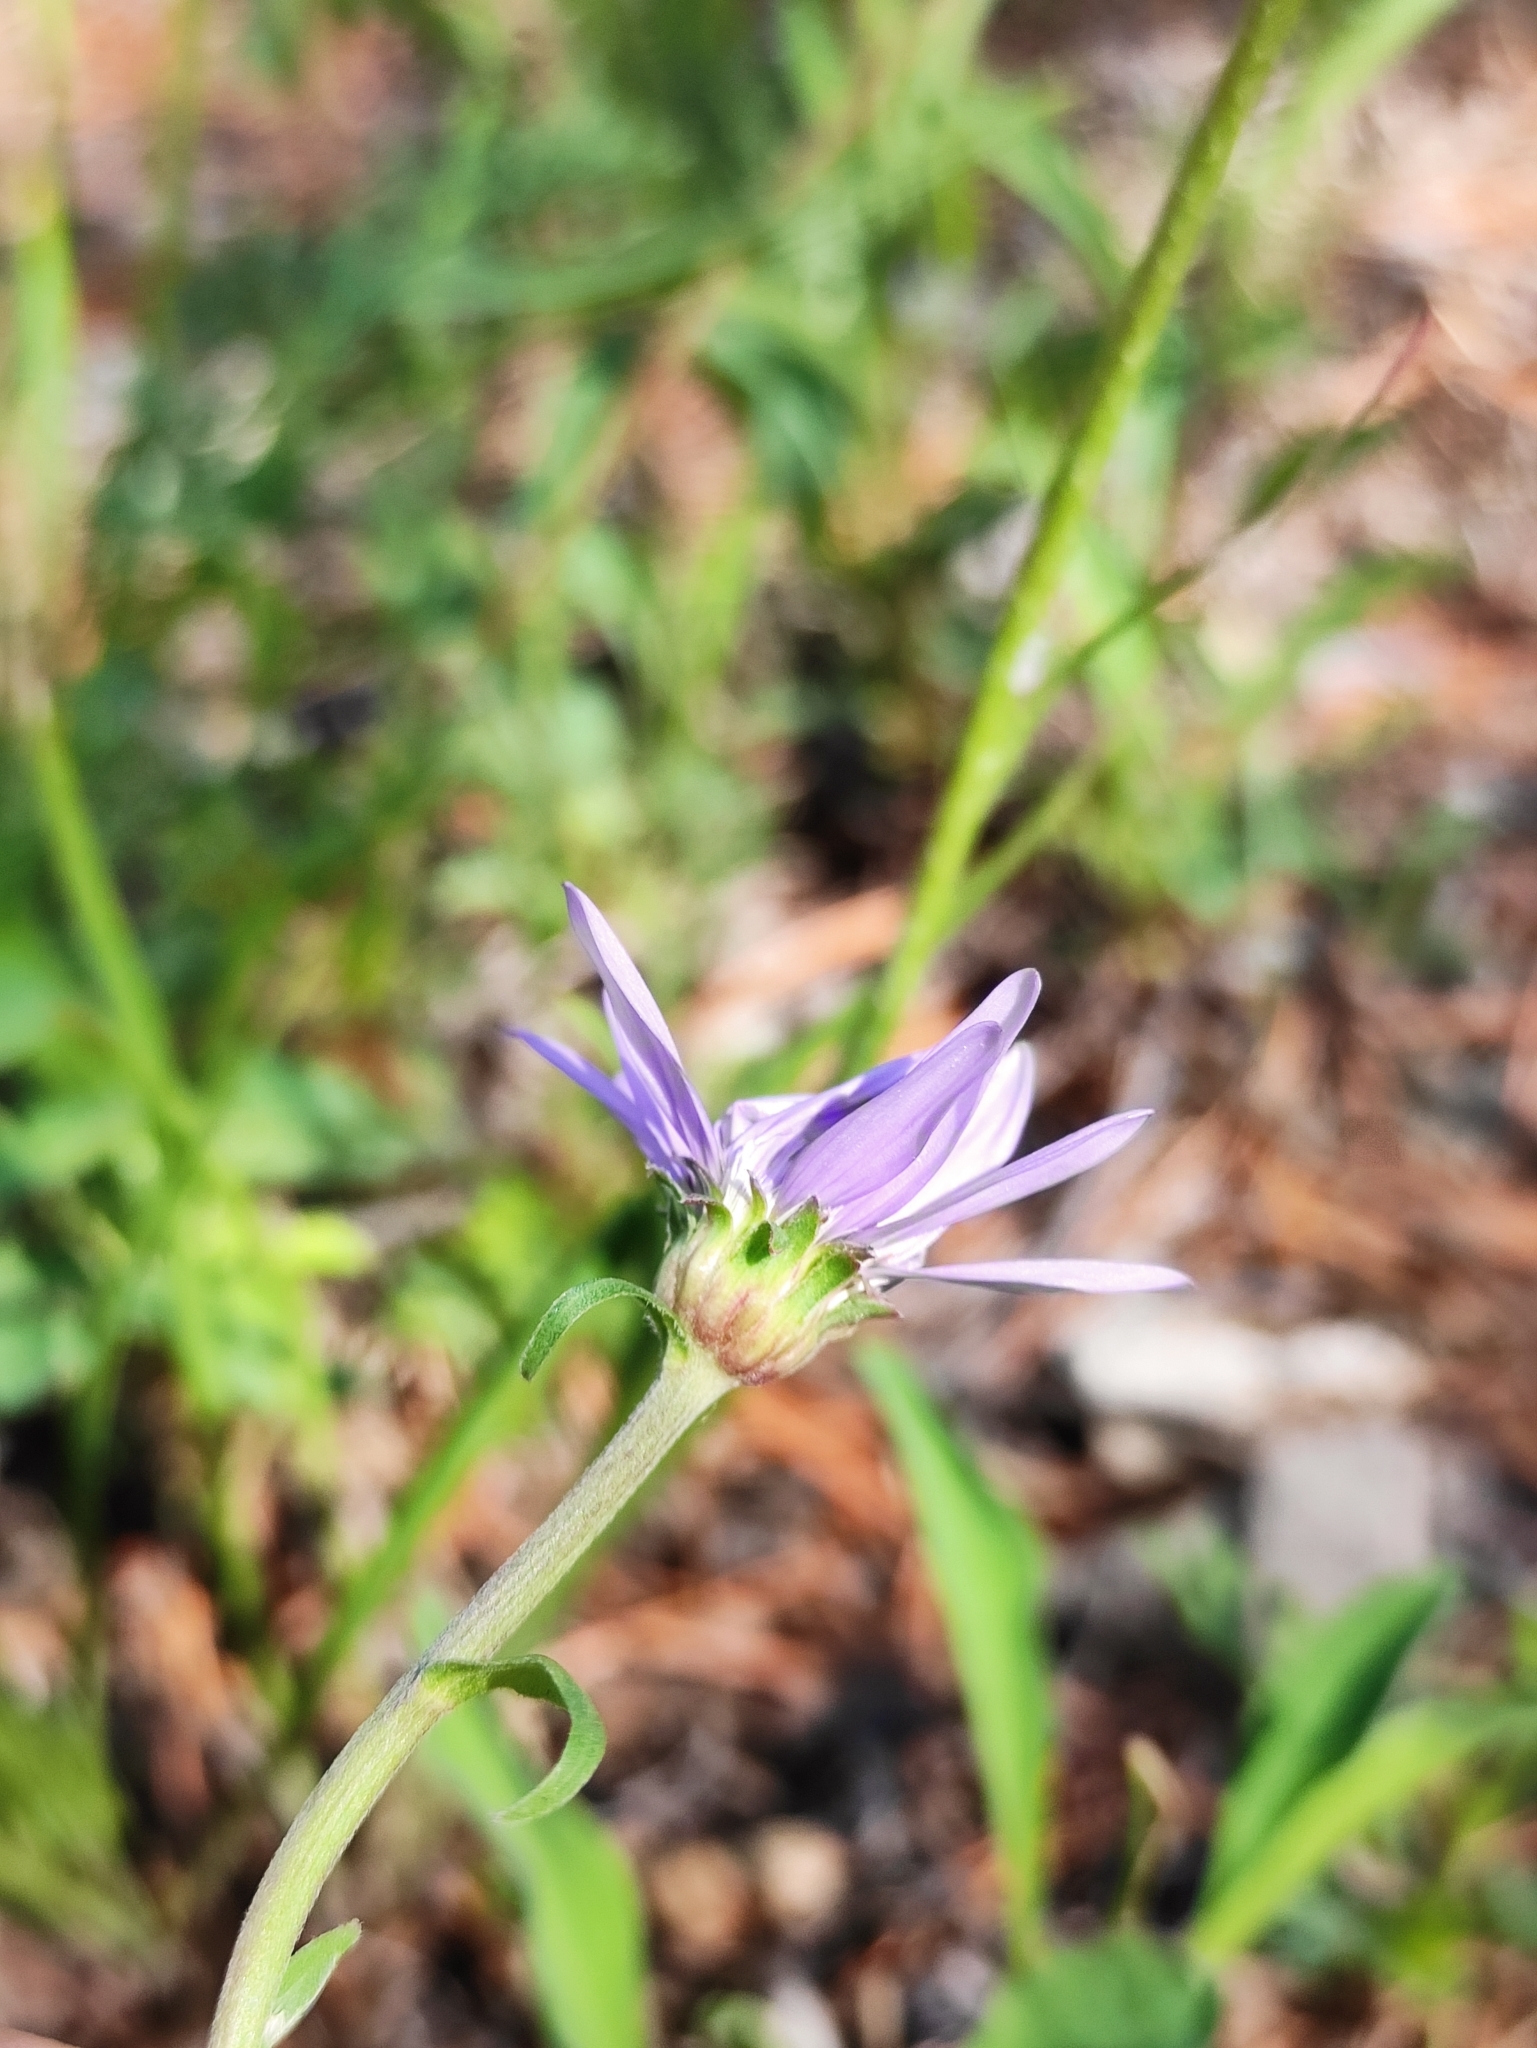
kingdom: Plantae
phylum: Tracheophyta
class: Magnoliopsida
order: Asterales
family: Asteraceae
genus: Aster
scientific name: Aster alpinus
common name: Alpine aster
